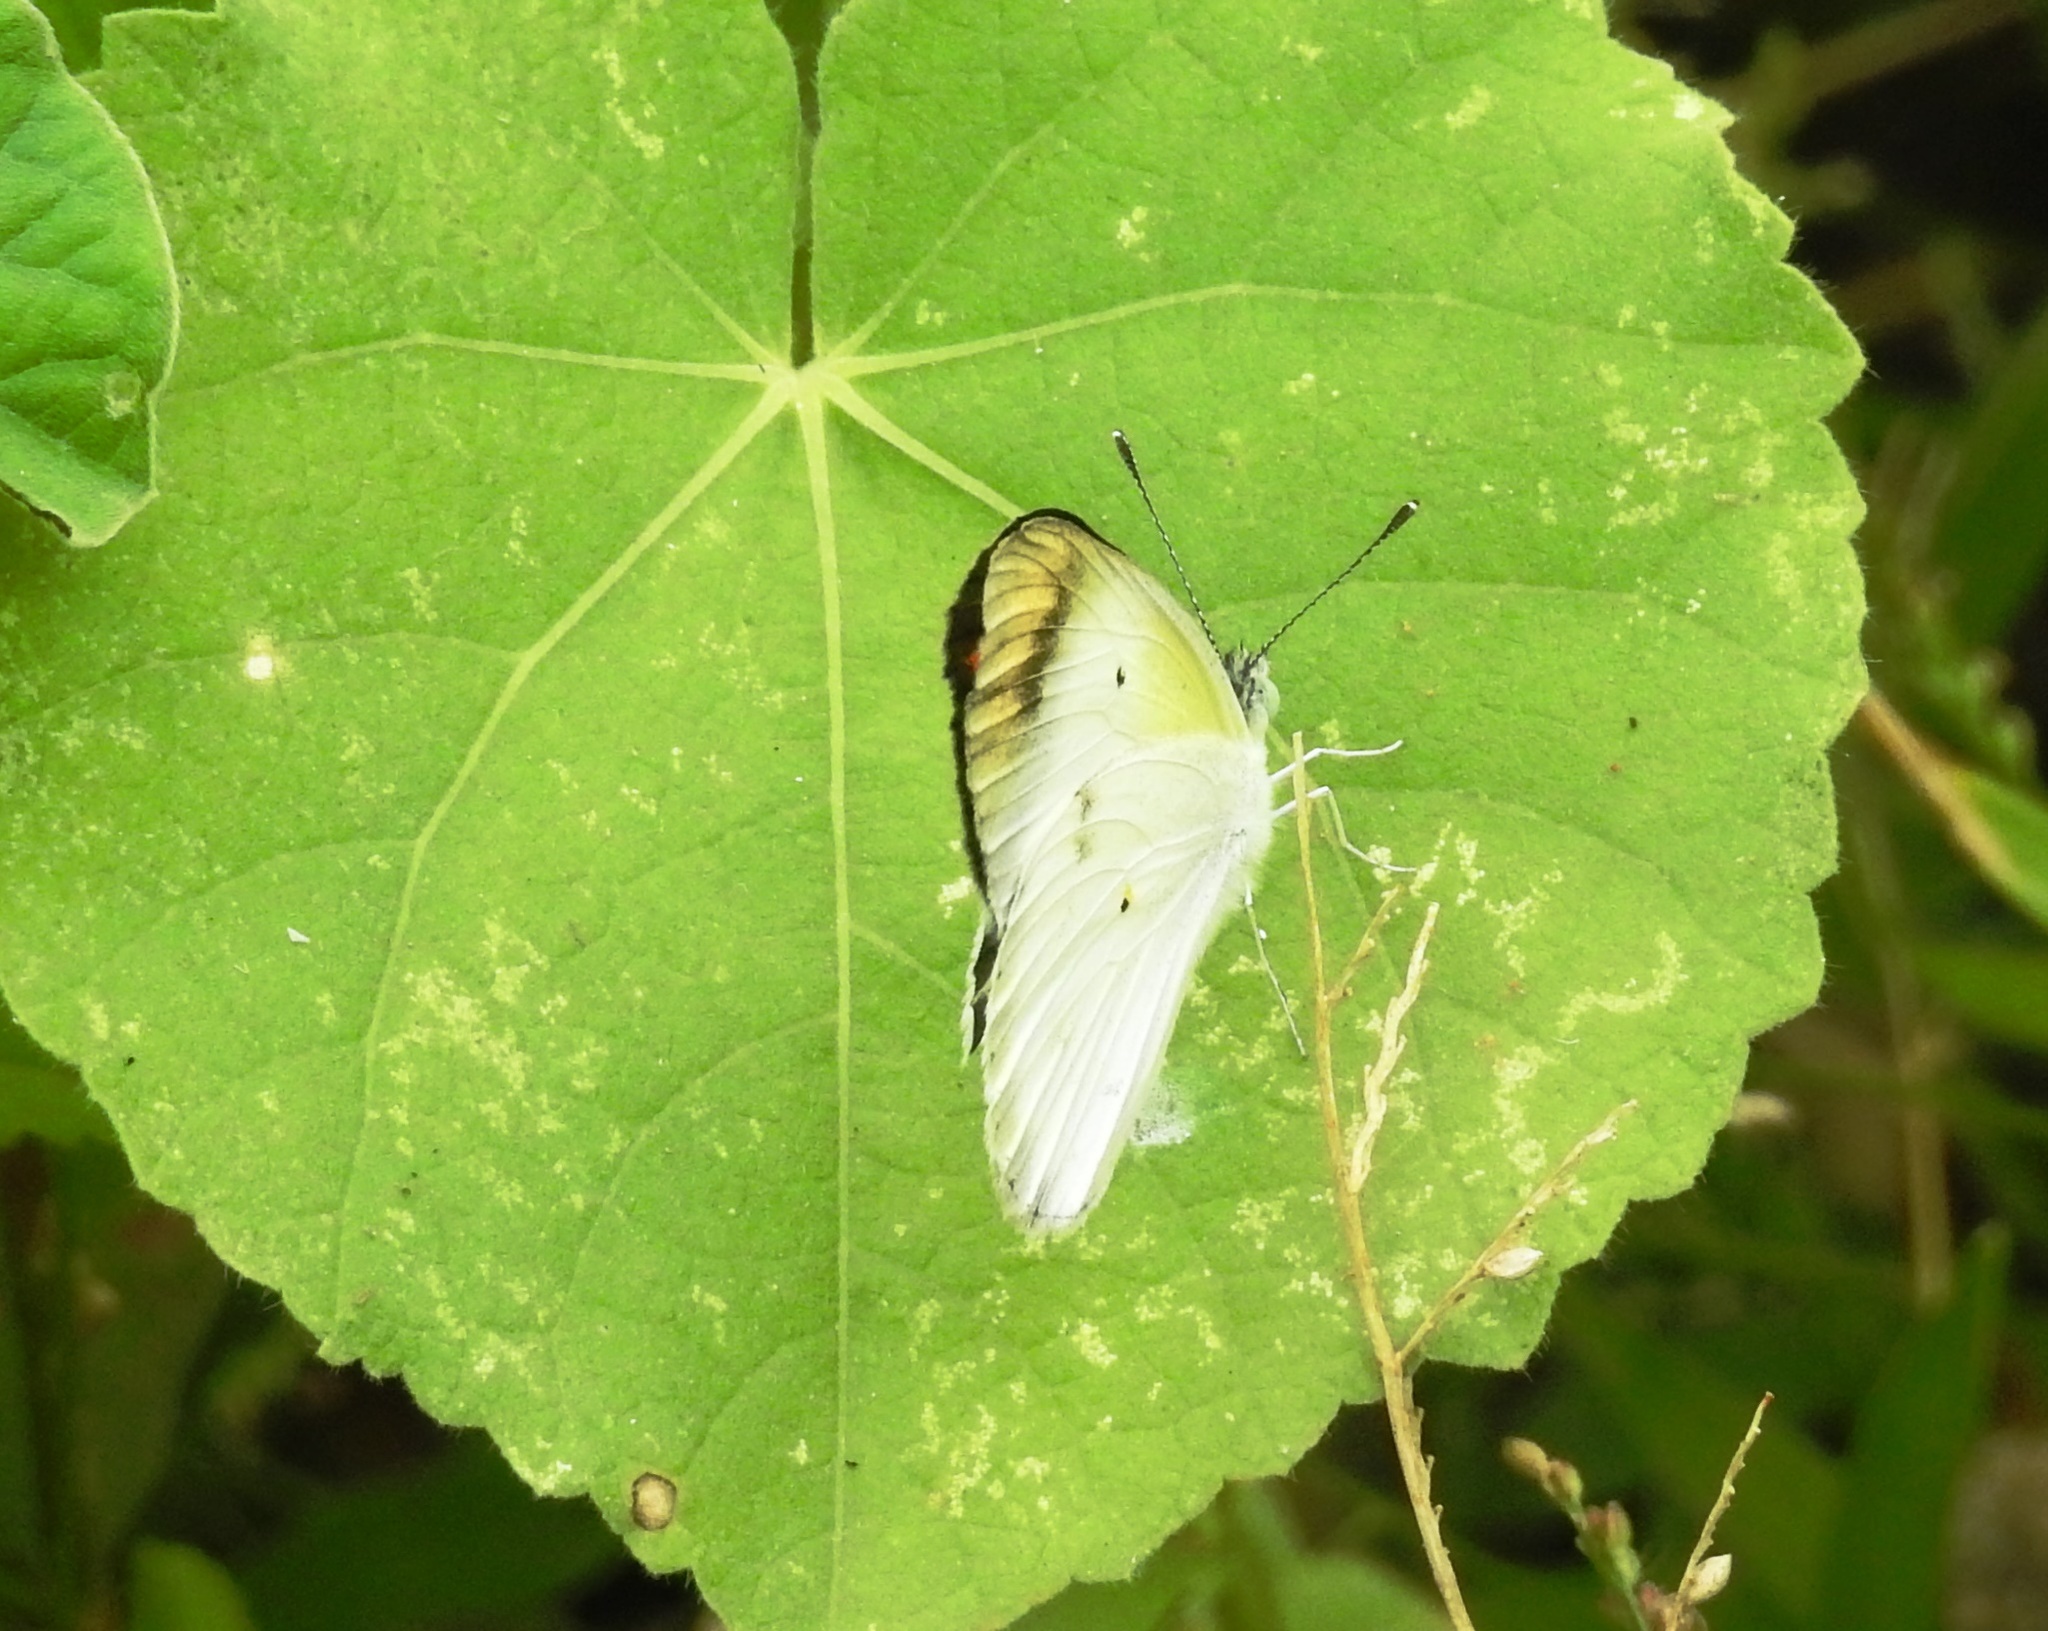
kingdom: Animalia
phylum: Arthropoda
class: Insecta
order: Lepidoptera
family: Pieridae
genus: Colotis
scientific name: Colotis etrida
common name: Little orange tip
